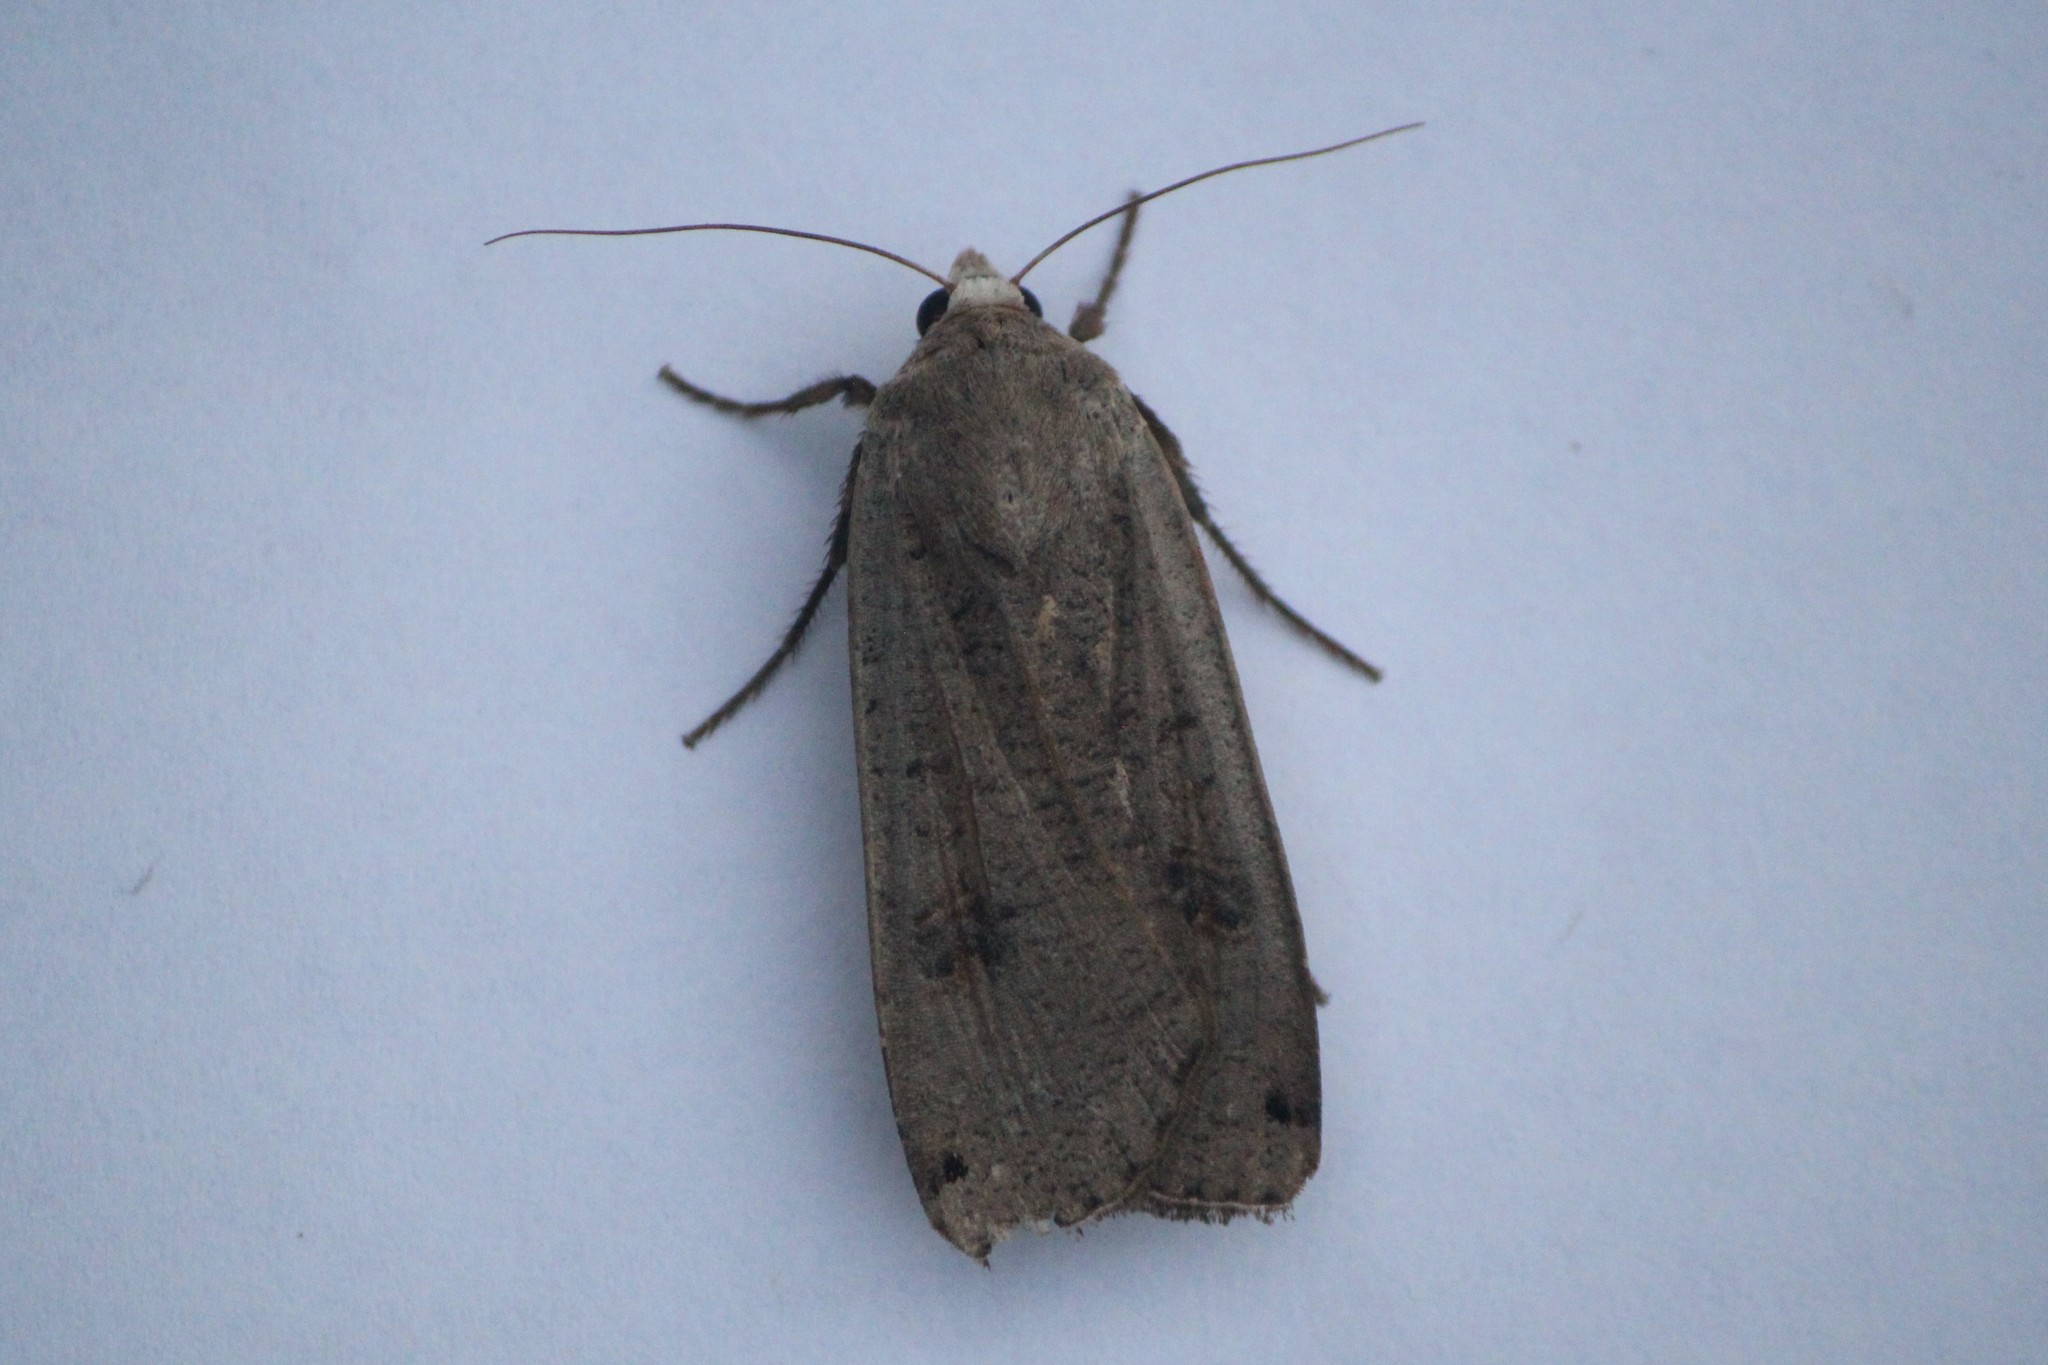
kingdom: Animalia
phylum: Arthropoda
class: Insecta
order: Lepidoptera
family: Noctuidae
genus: Noctua
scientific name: Noctua pronuba
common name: Large yellow underwing
